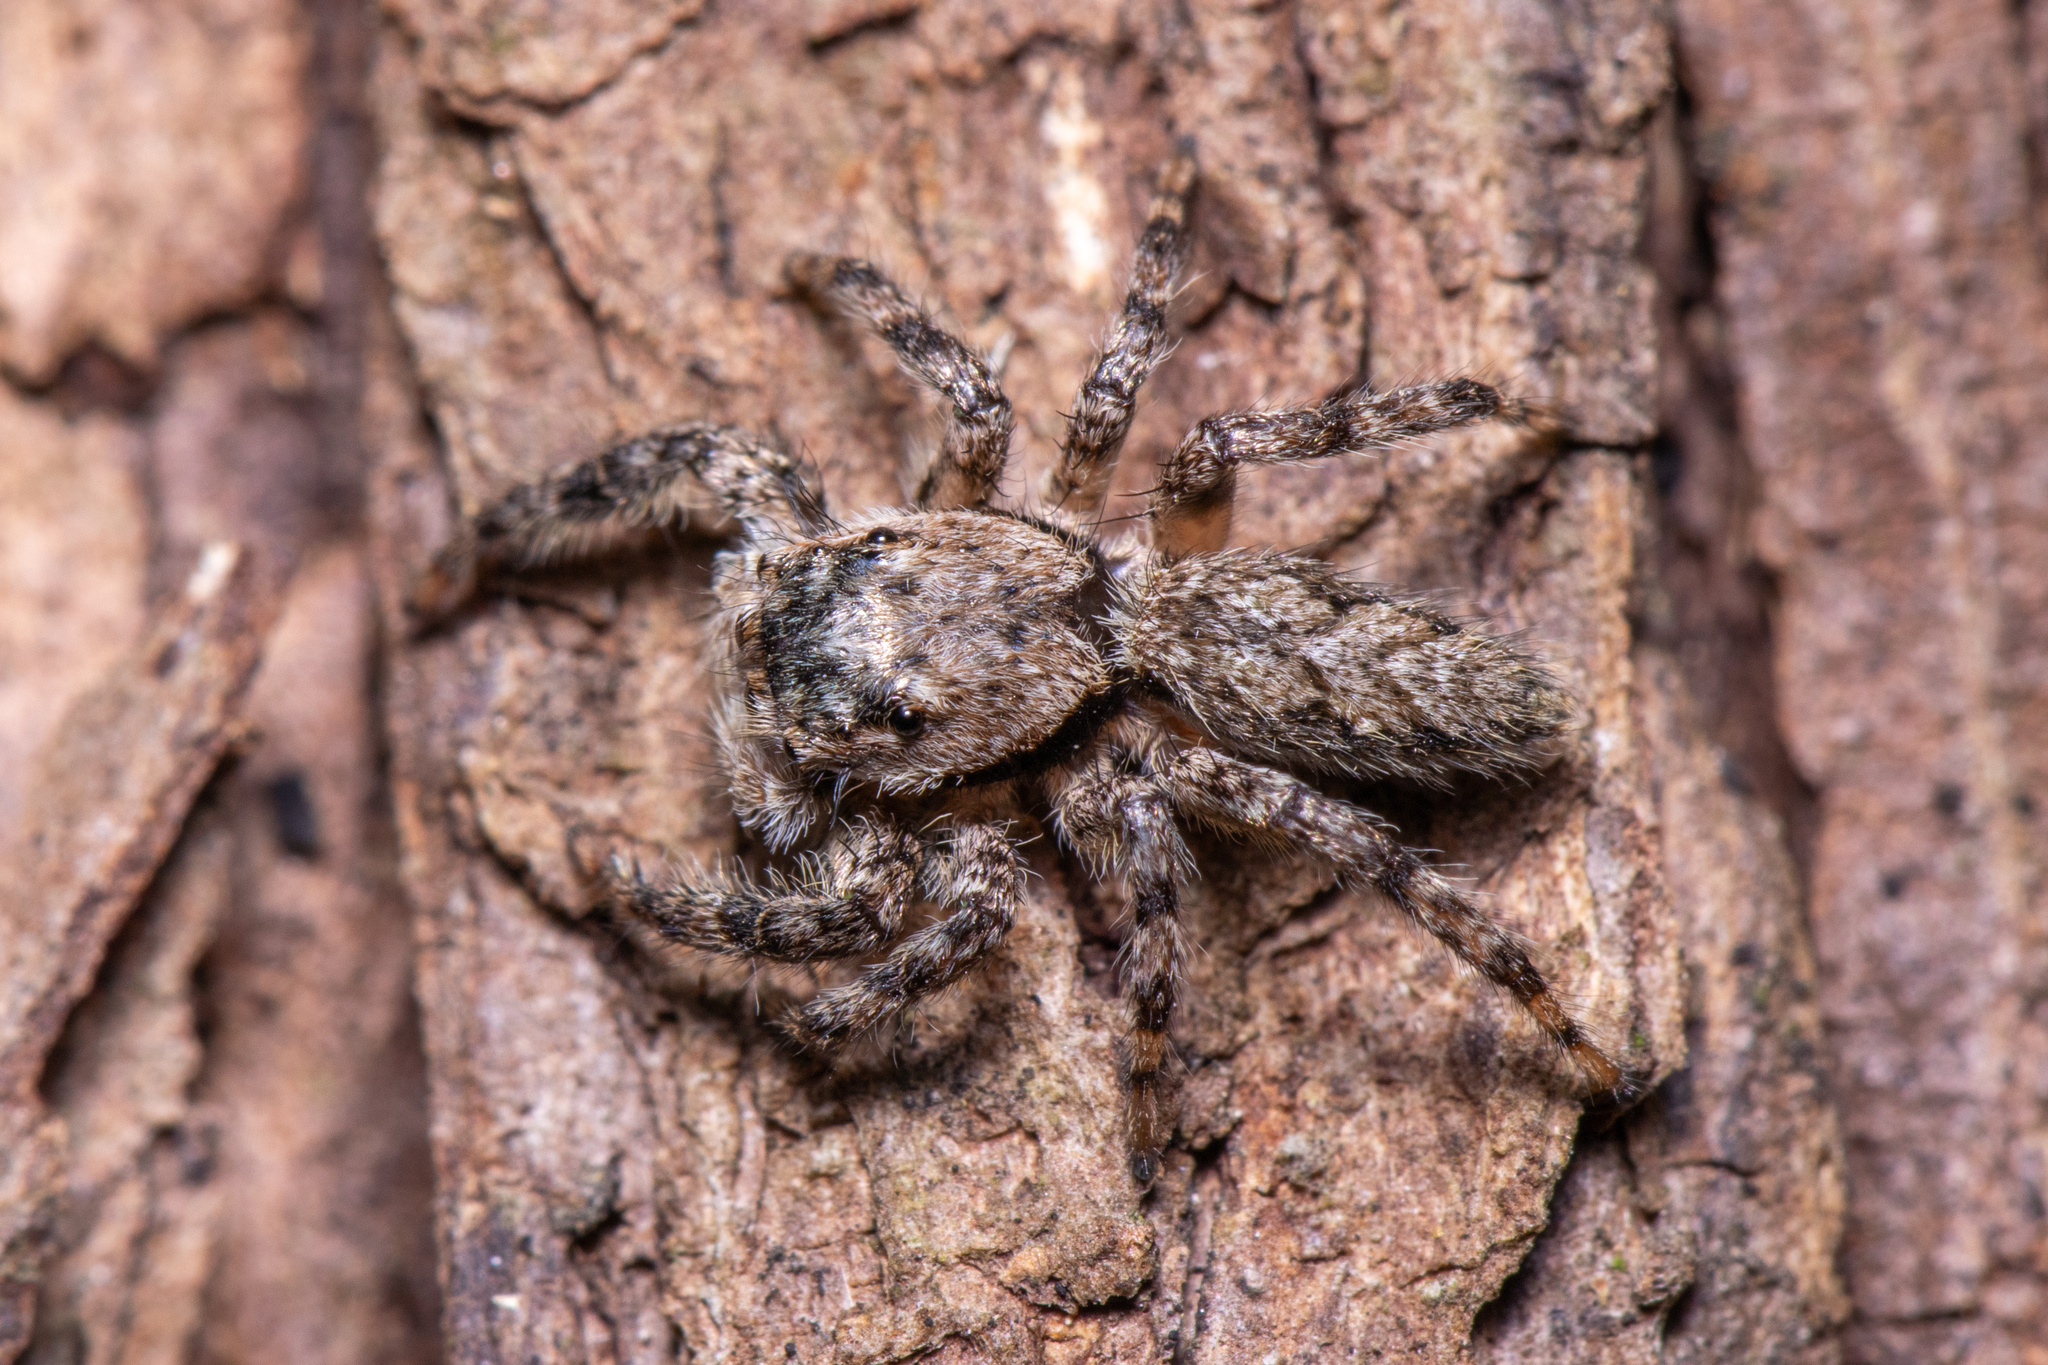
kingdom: Animalia
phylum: Arthropoda
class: Arachnida
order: Araneae
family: Salticidae
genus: Platycryptus
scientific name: Platycryptus undatus
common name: Tan jumping spider
